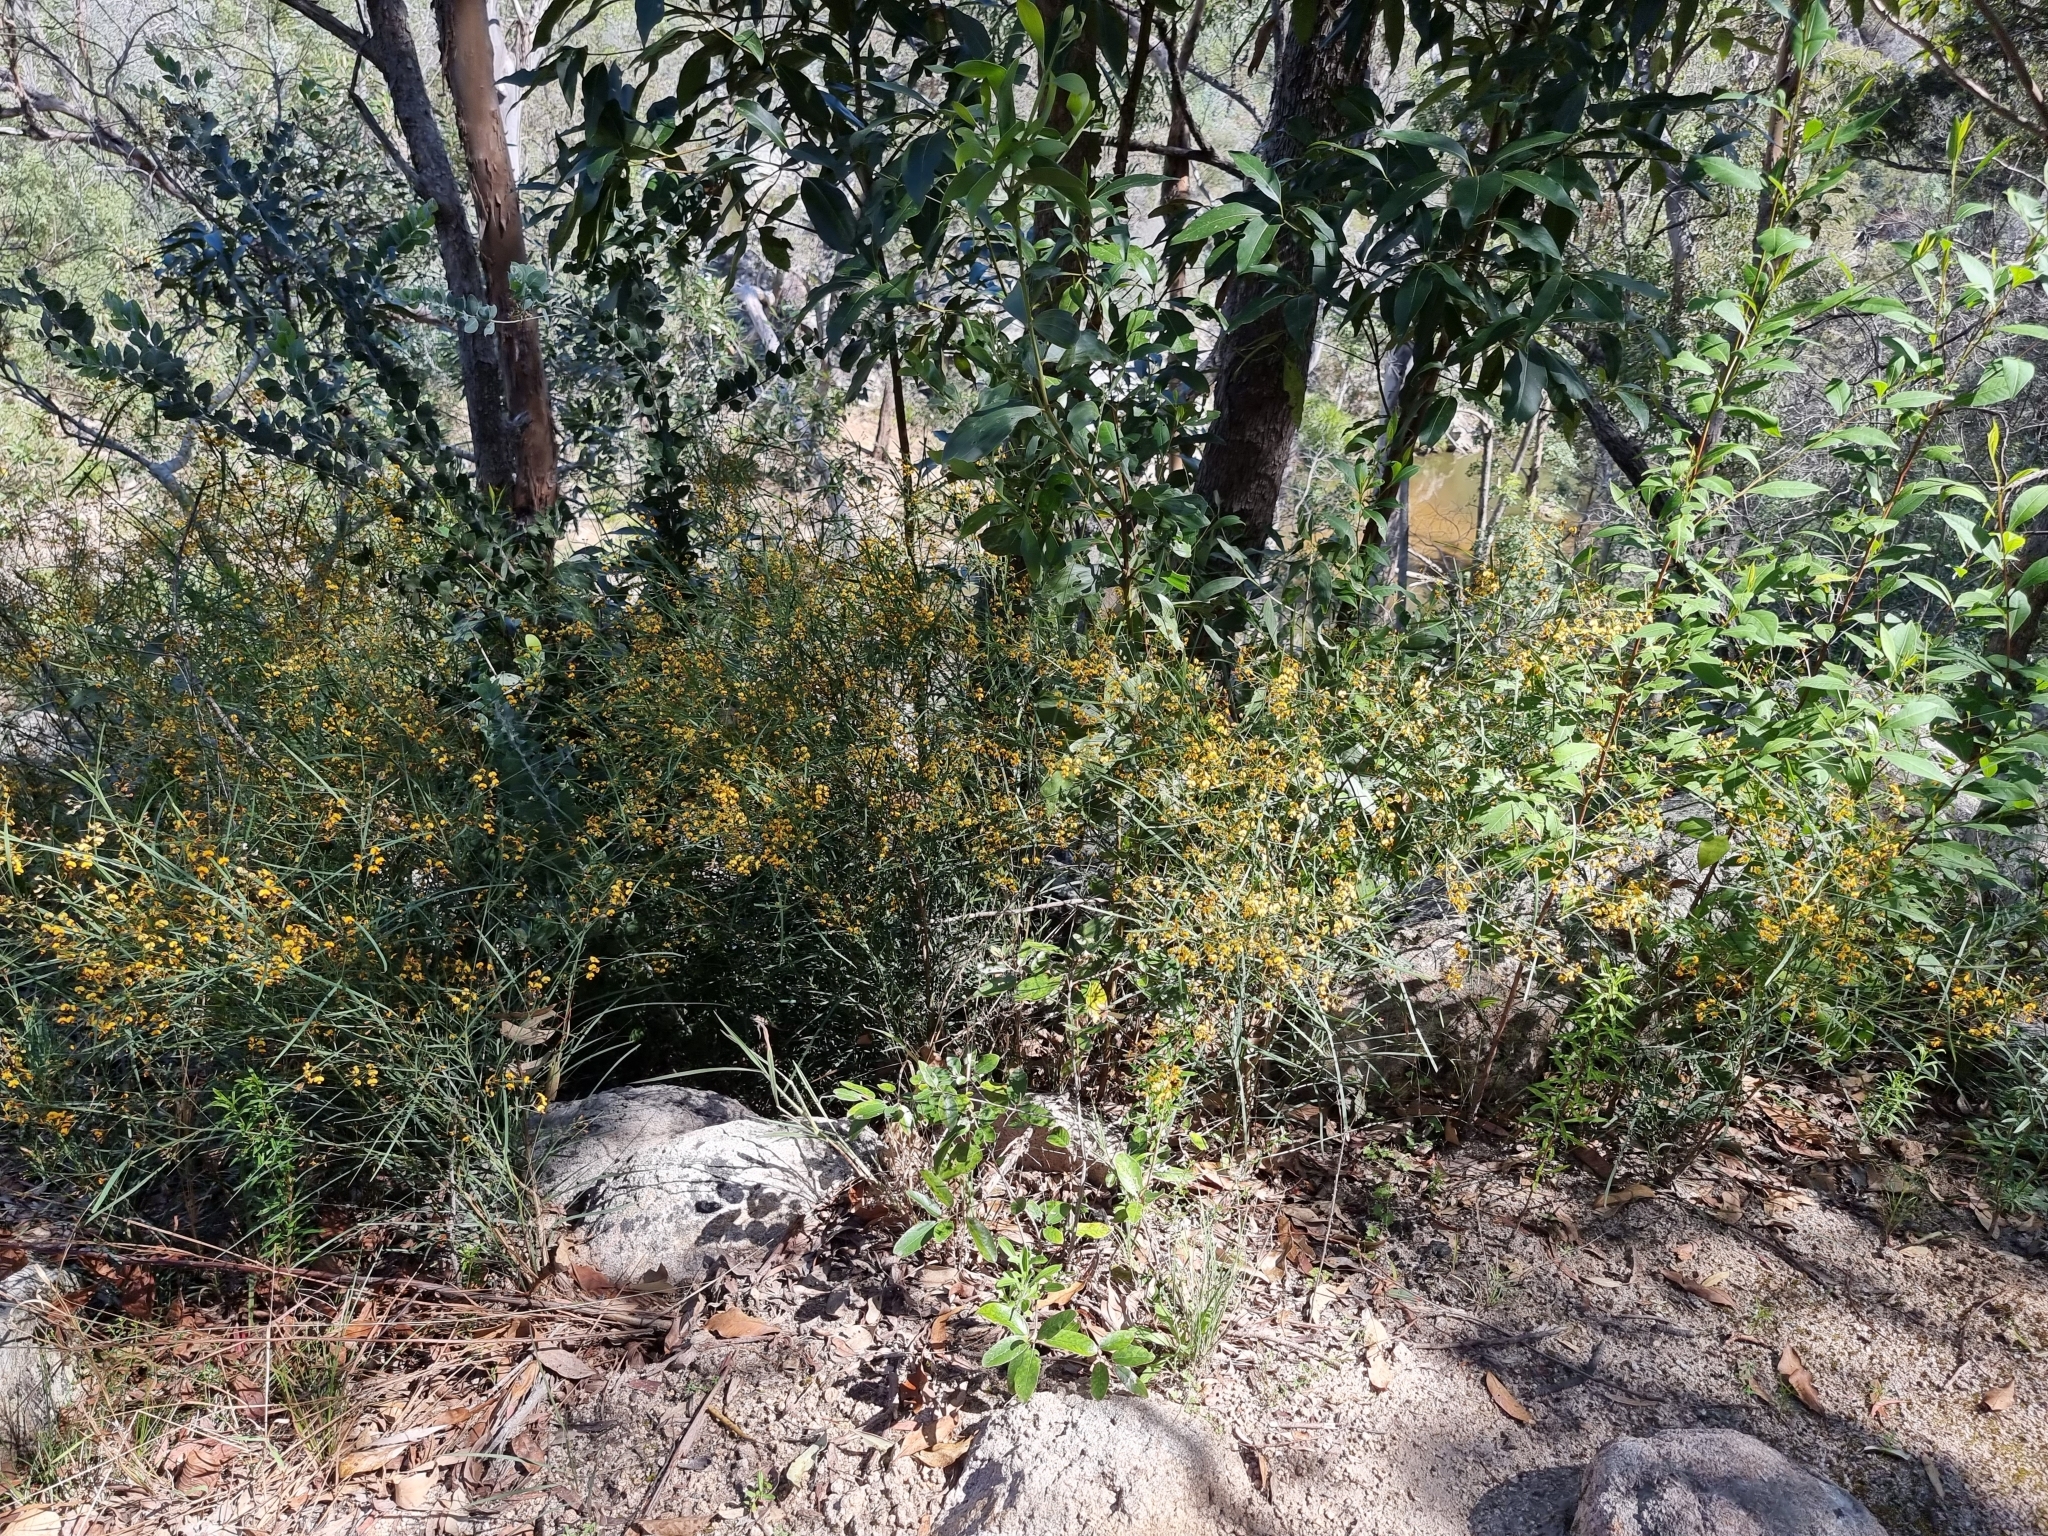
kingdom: Plantae
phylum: Tracheophyta
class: Magnoliopsida
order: Fabales
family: Fabaceae
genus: Daviesia
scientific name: Daviesia wyattiana
